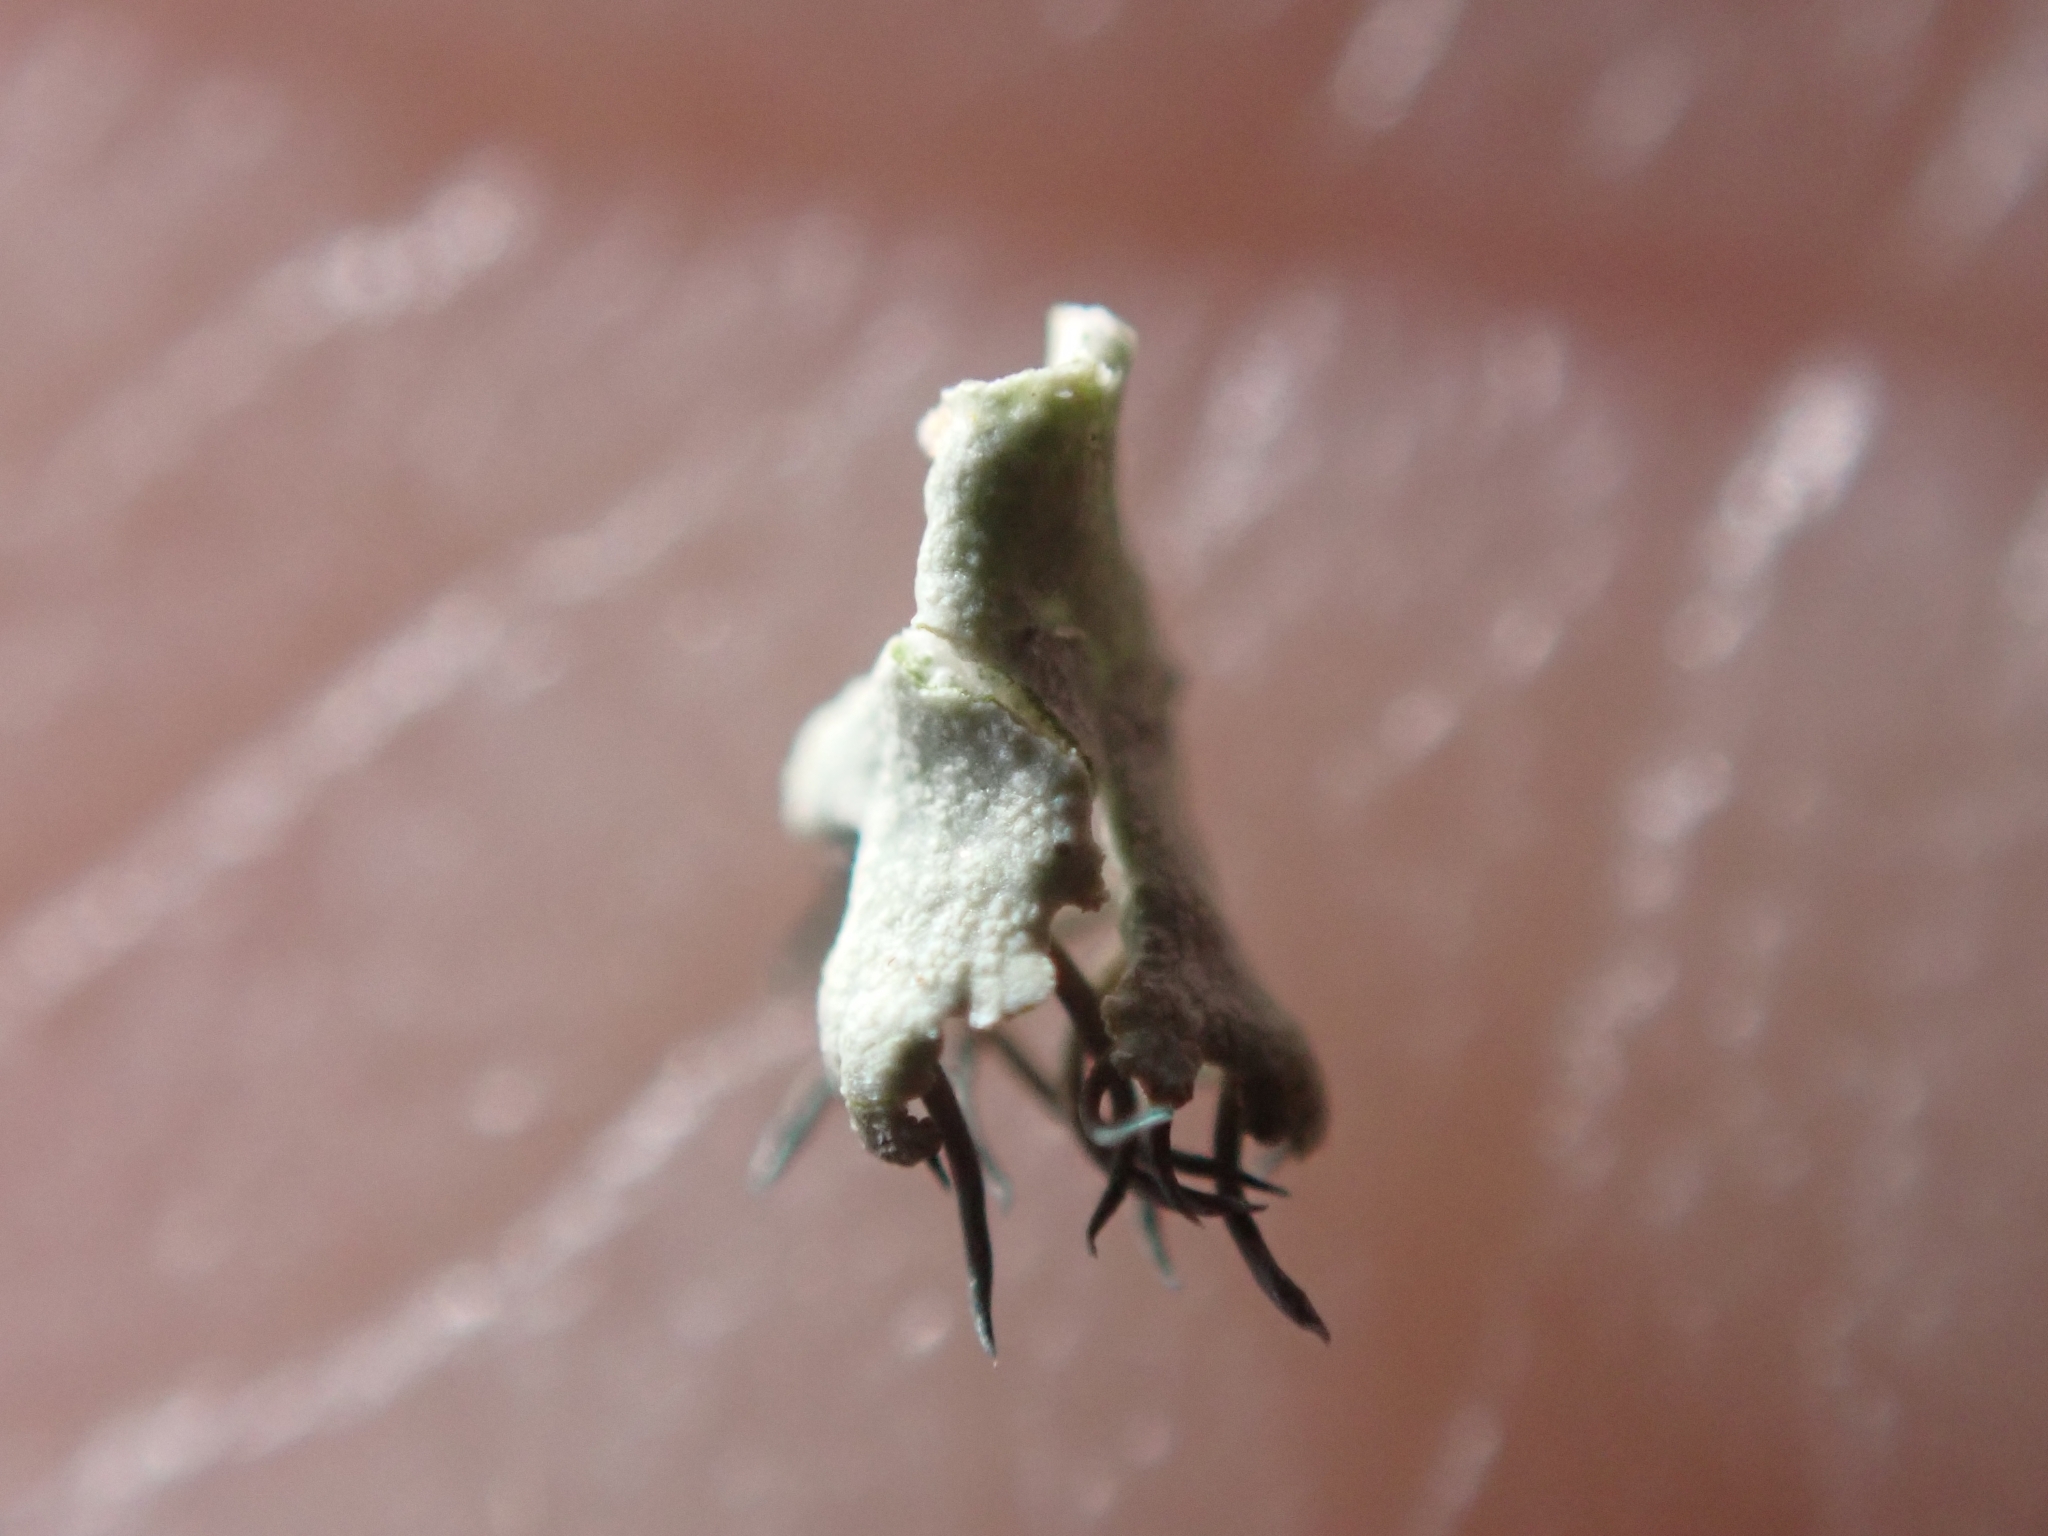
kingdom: Fungi
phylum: Ascomycota
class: Lecanoromycetes
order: Caliciales
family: Physciaceae
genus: Physcia
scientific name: Physcia tenella
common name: Fringed rosette lichen
